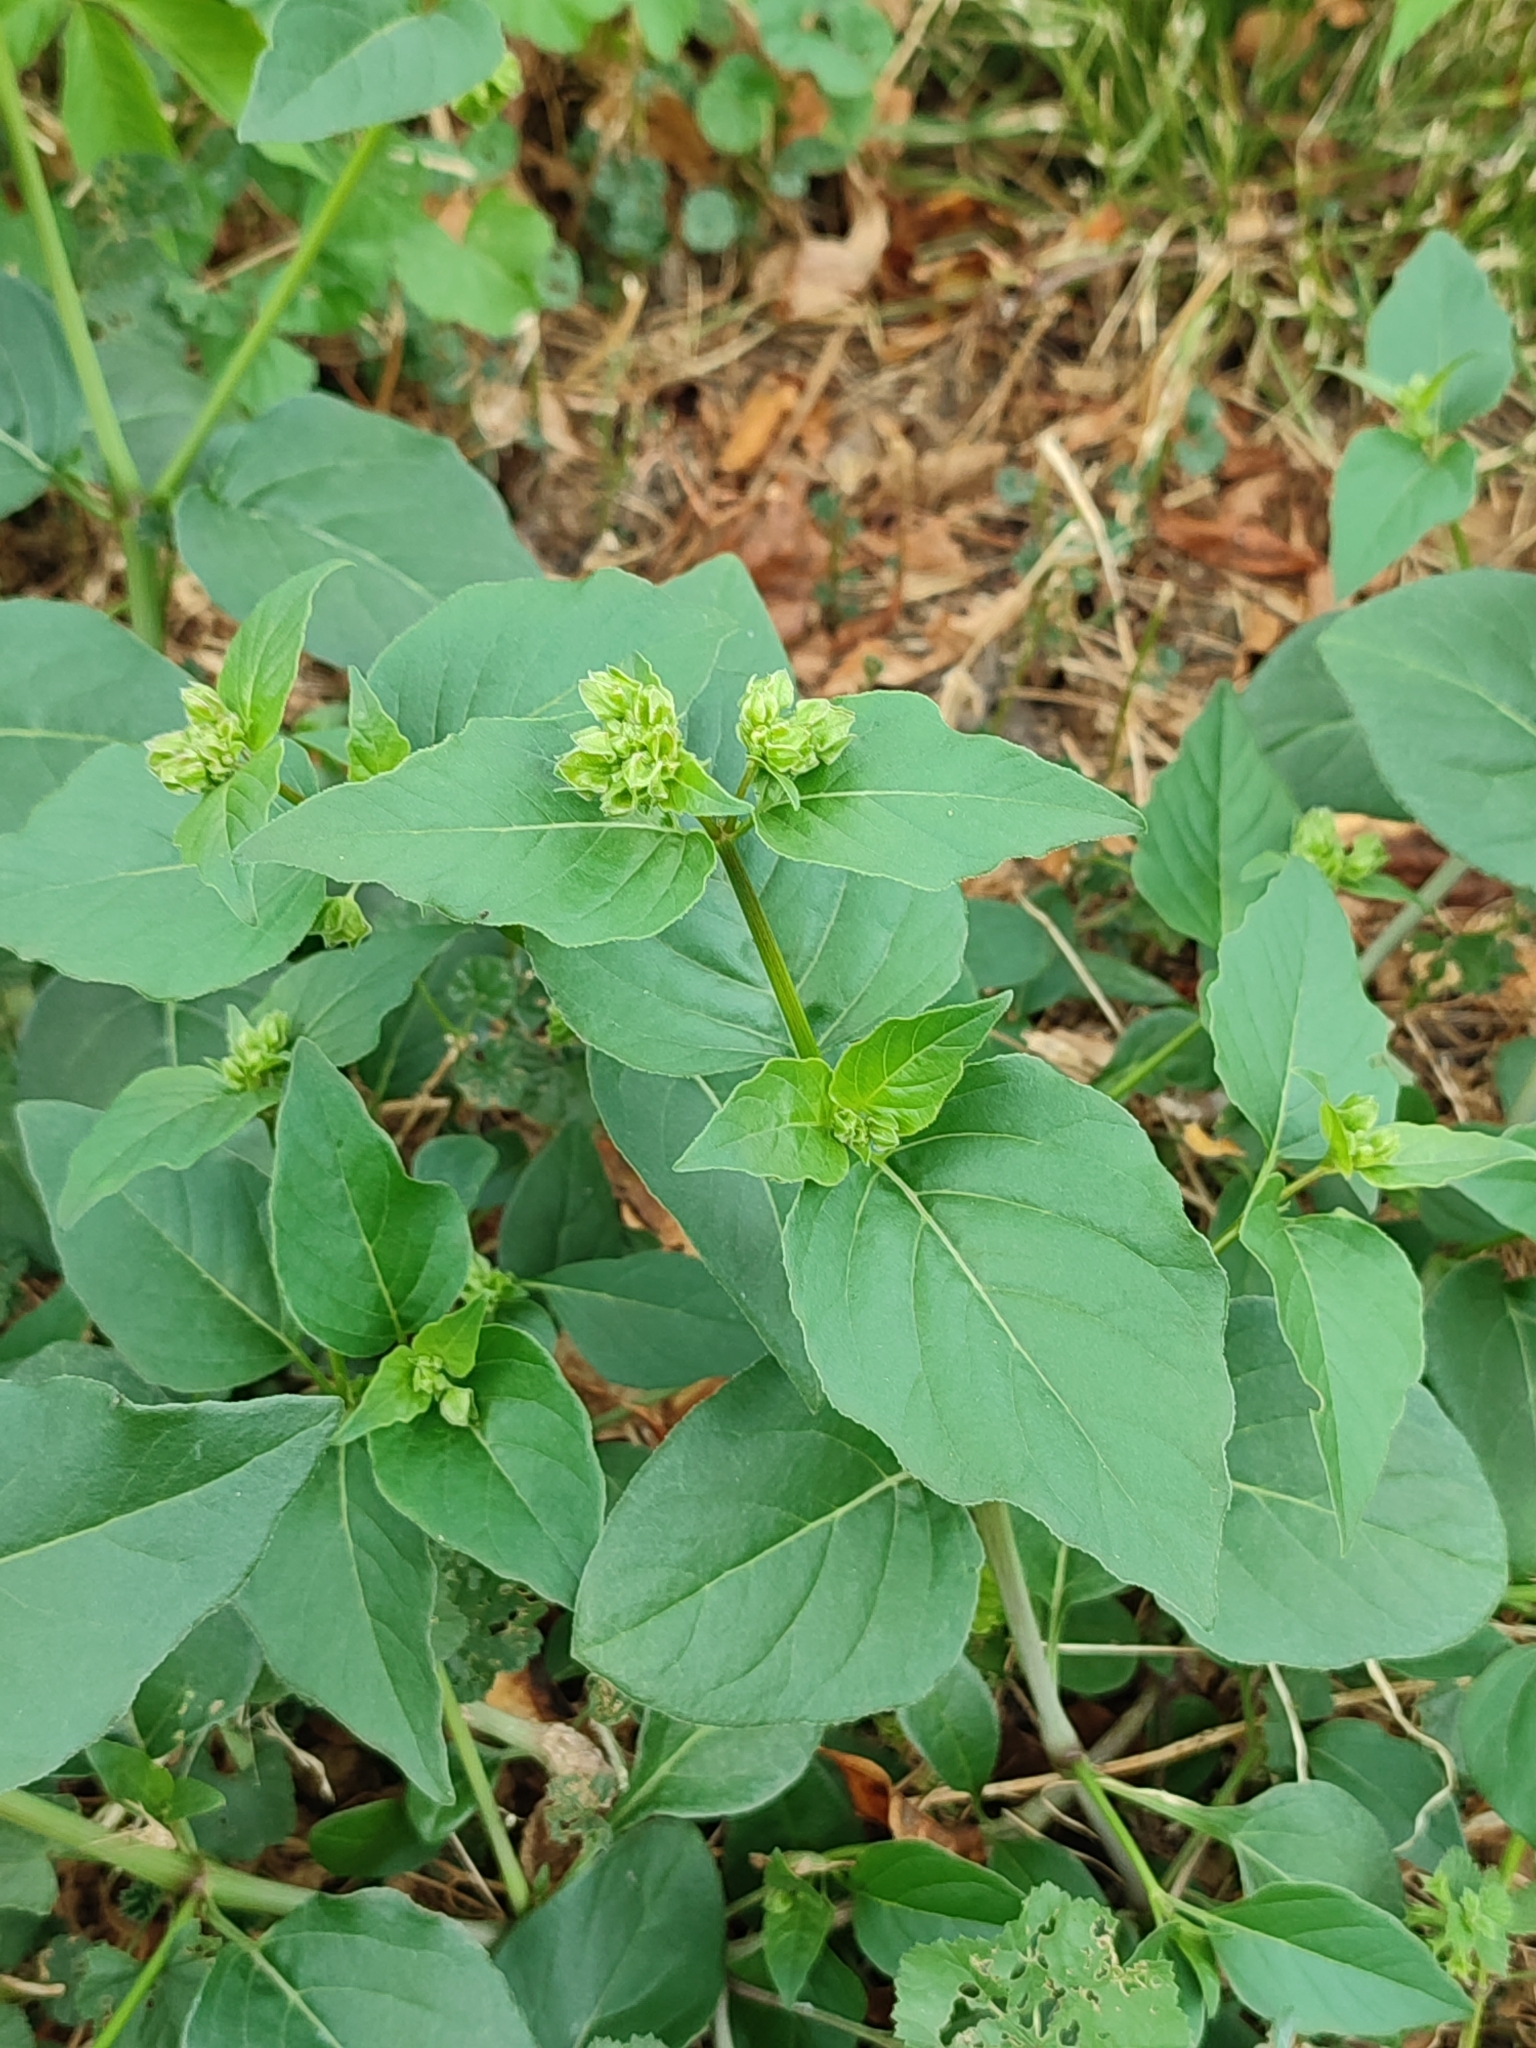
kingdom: Plantae
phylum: Tracheophyta
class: Magnoliopsida
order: Caryophyllales
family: Nyctaginaceae
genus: Mirabilis
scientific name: Mirabilis nyctaginea
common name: Umbrella wort
